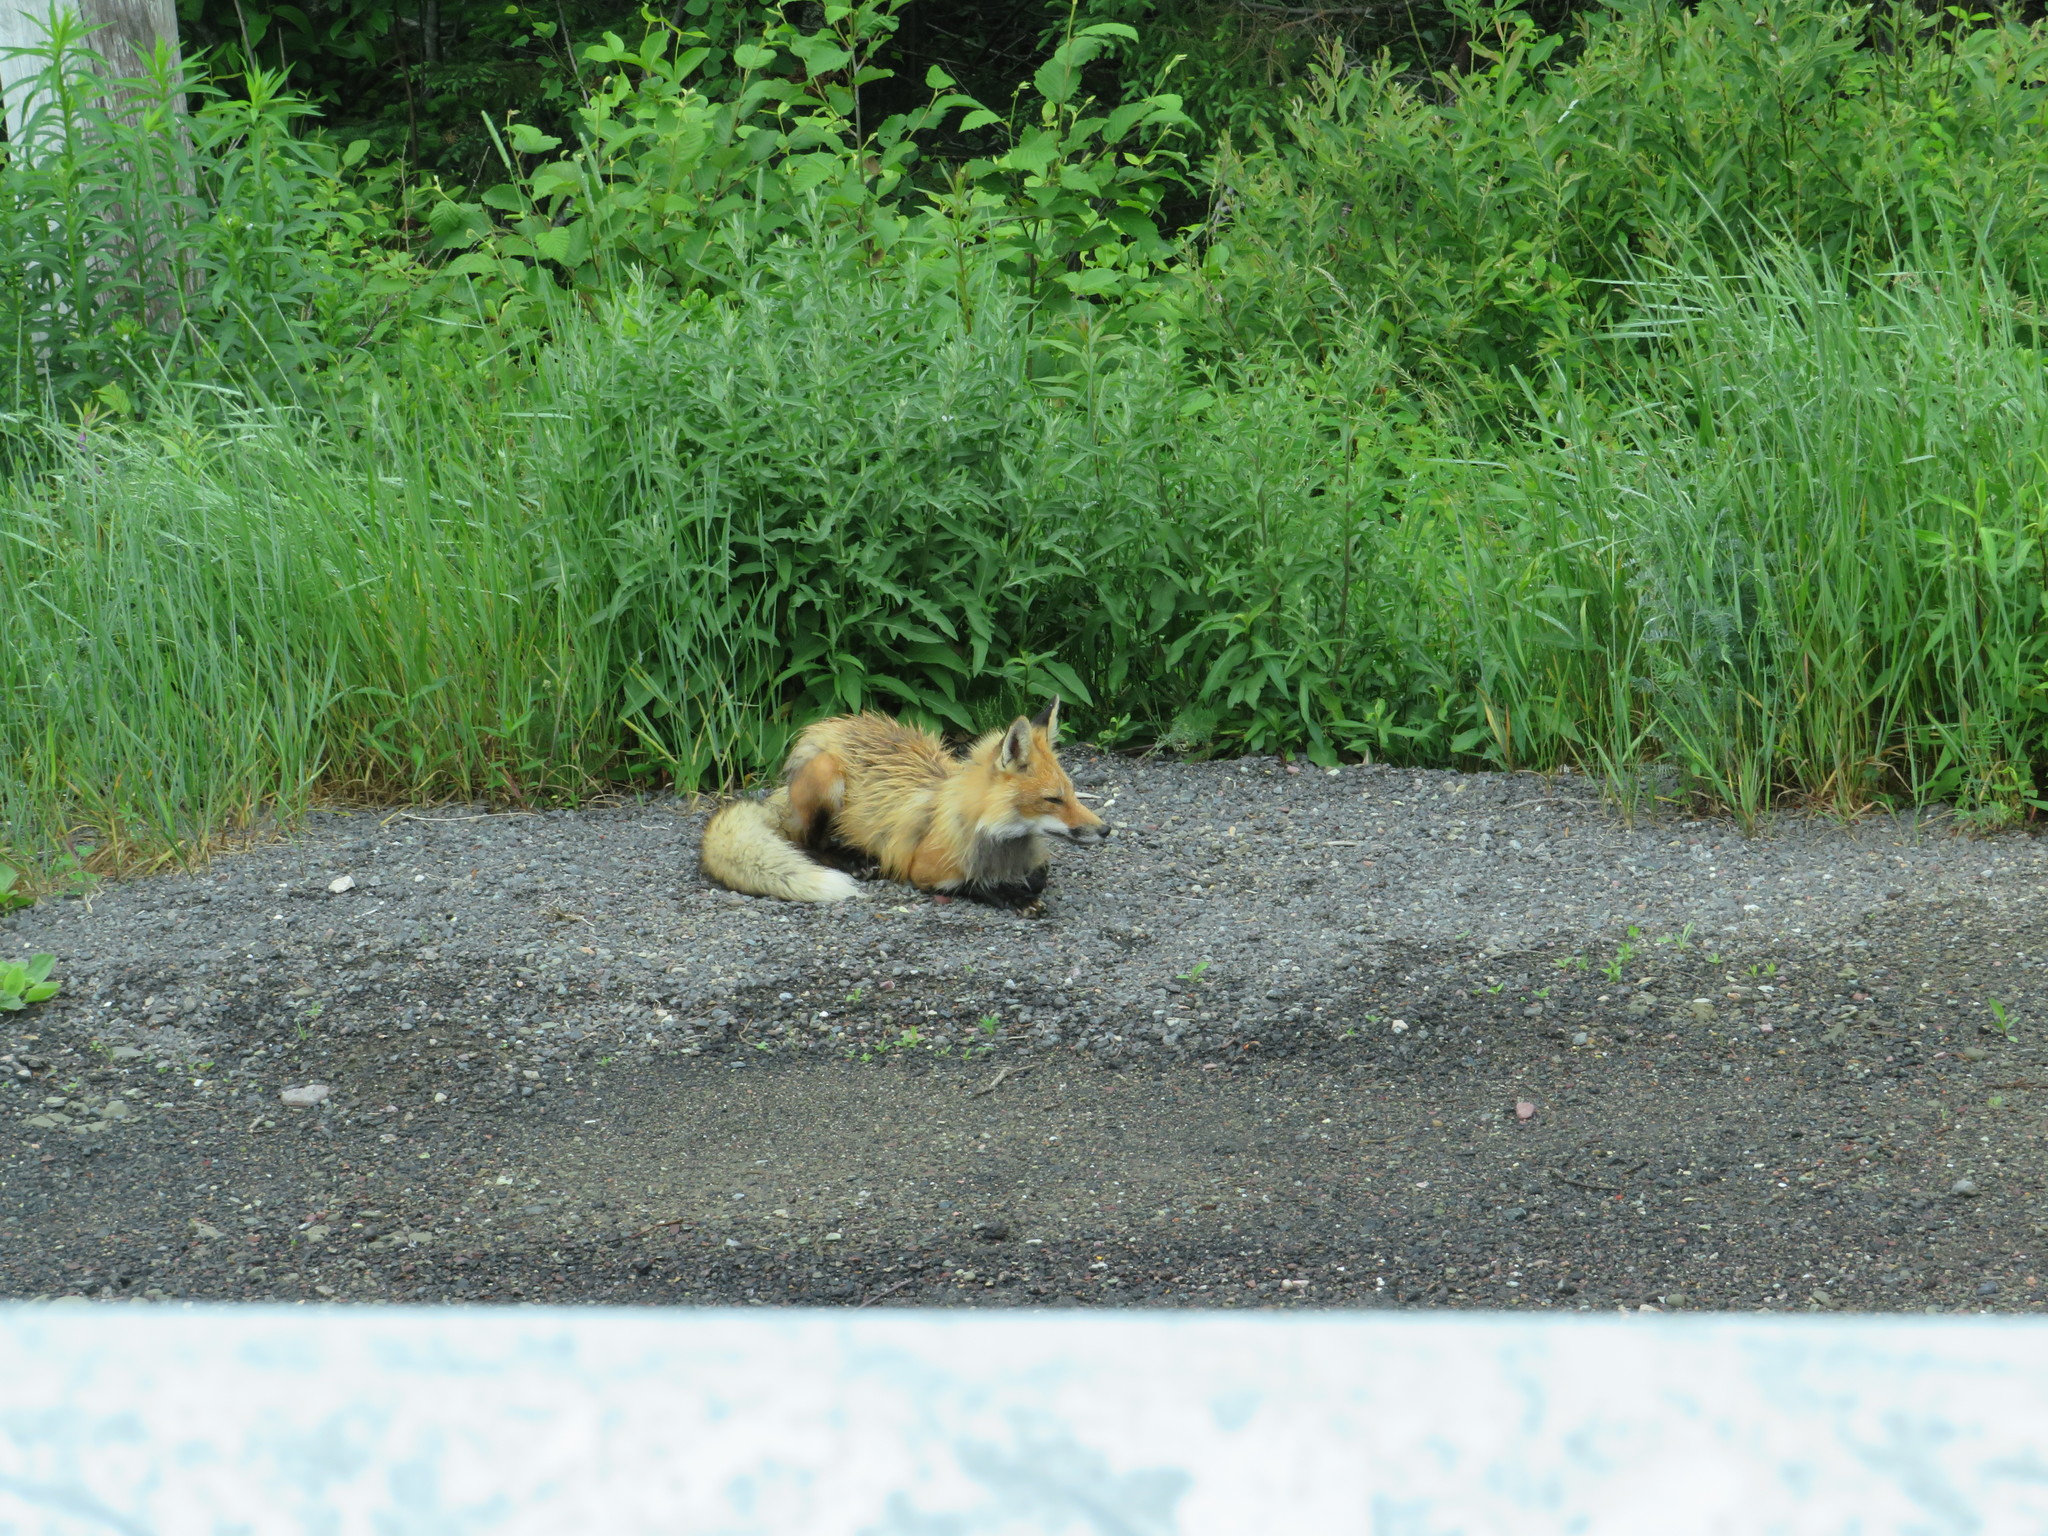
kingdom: Animalia
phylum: Chordata
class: Mammalia
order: Carnivora
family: Canidae
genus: Vulpes
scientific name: Vulpes vulpes
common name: Red fox
